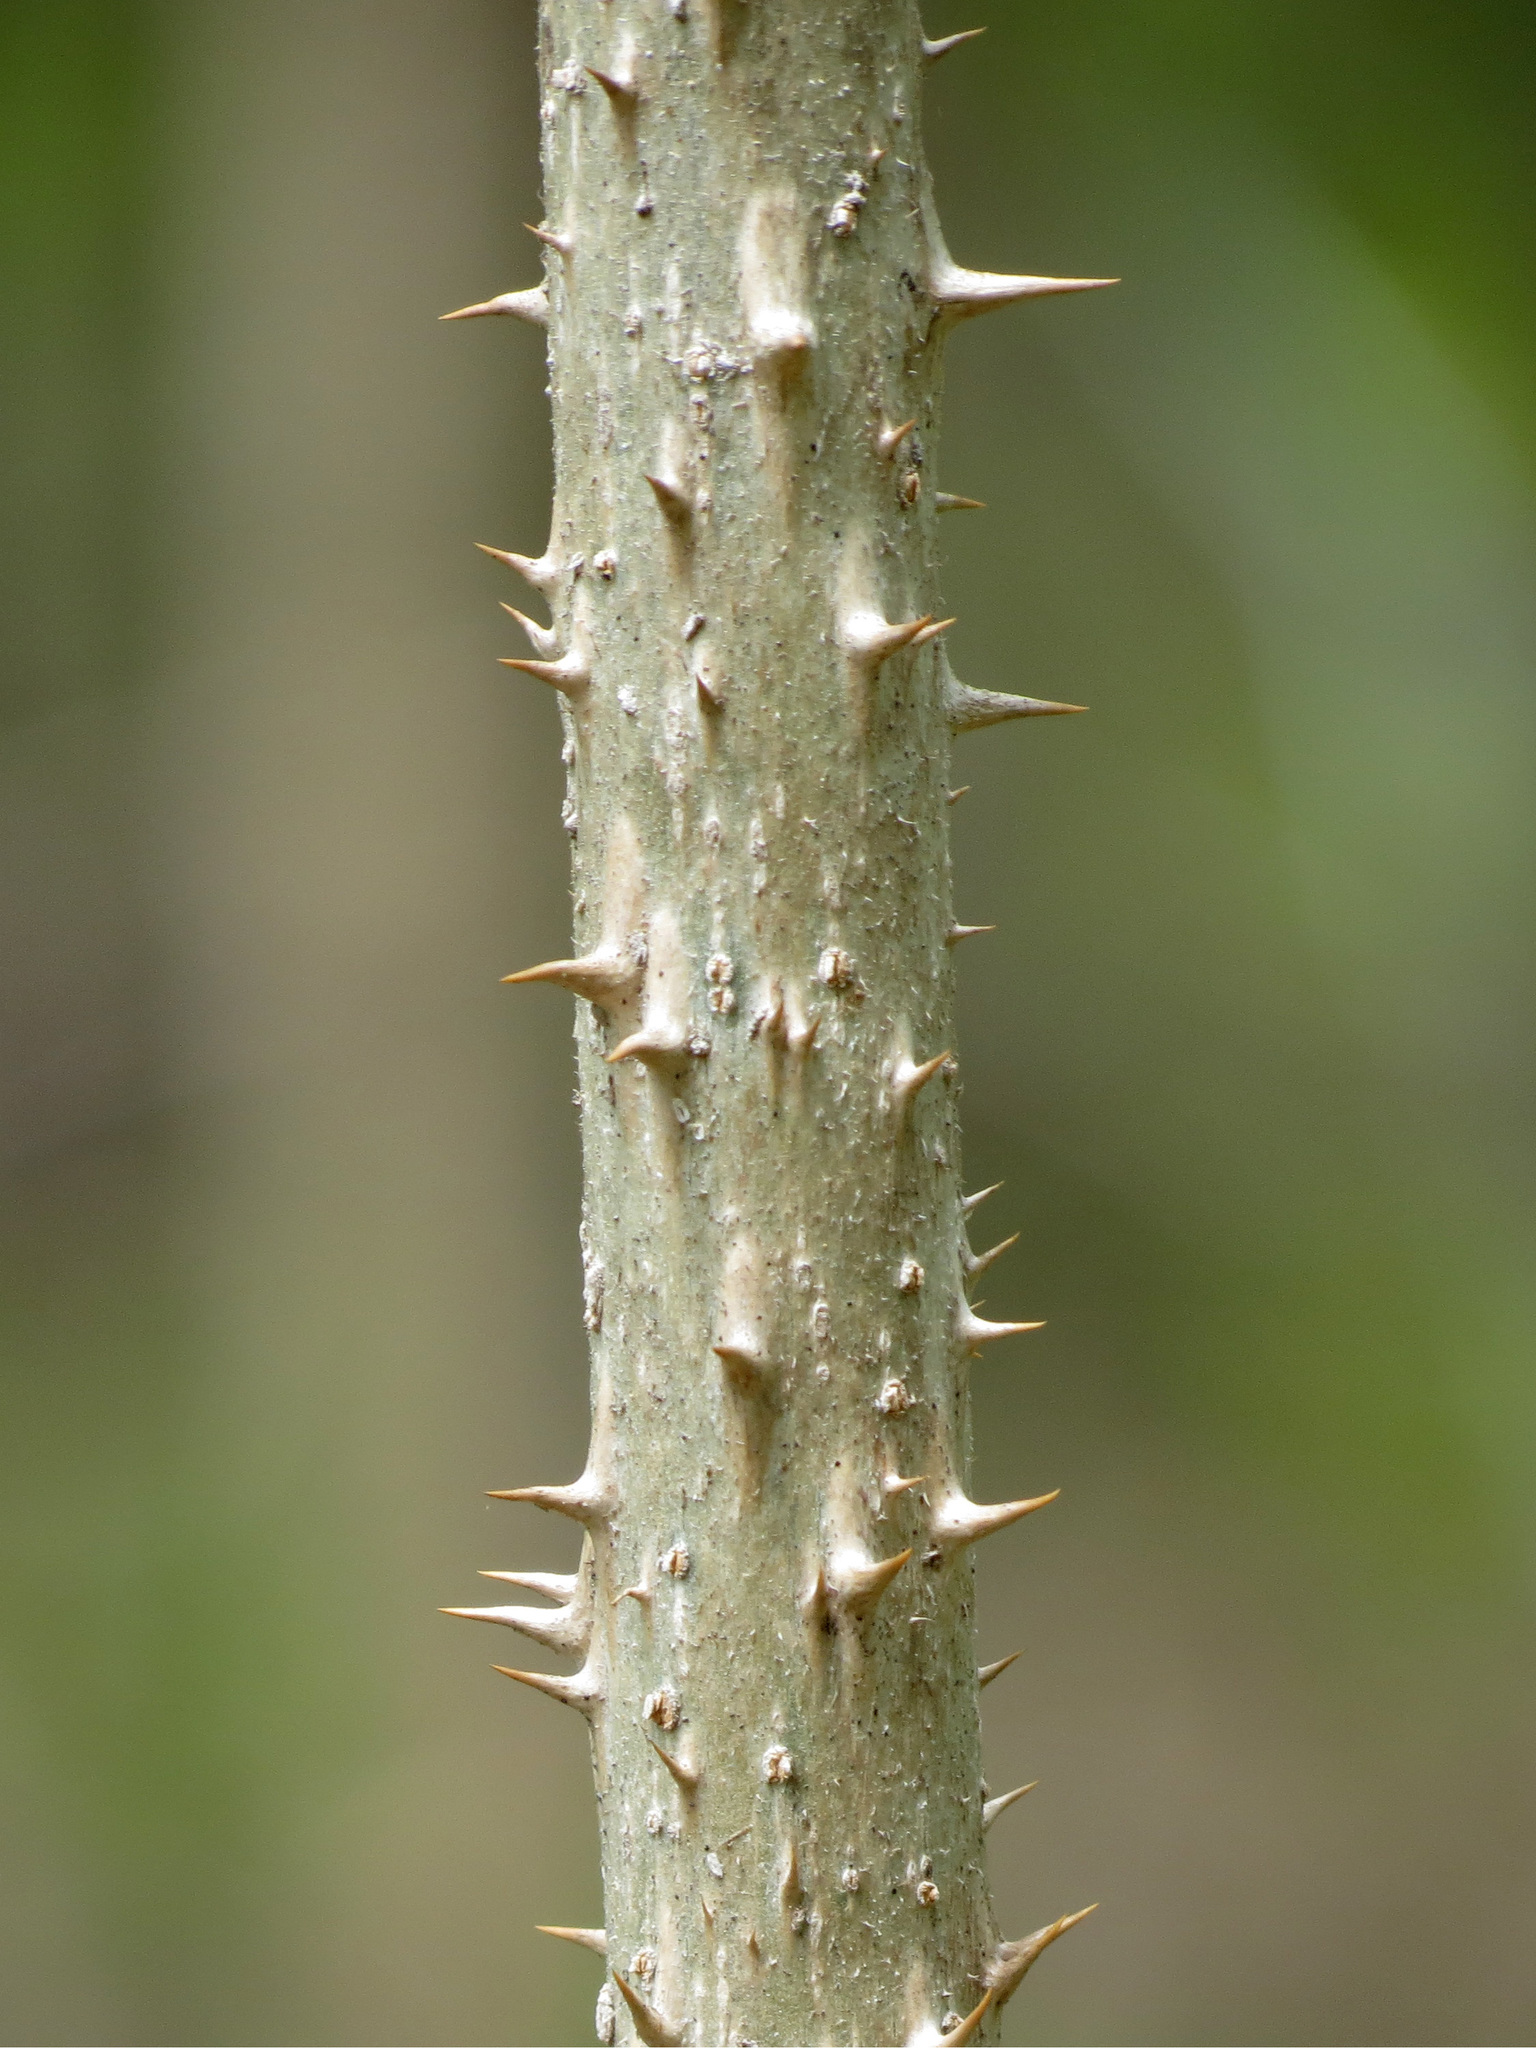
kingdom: Plantae
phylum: Tracheophyta
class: Magnoliopsida
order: Apiales
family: Araliaceae
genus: Aralia
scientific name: Aralia spinosa
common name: Hercules'-club
